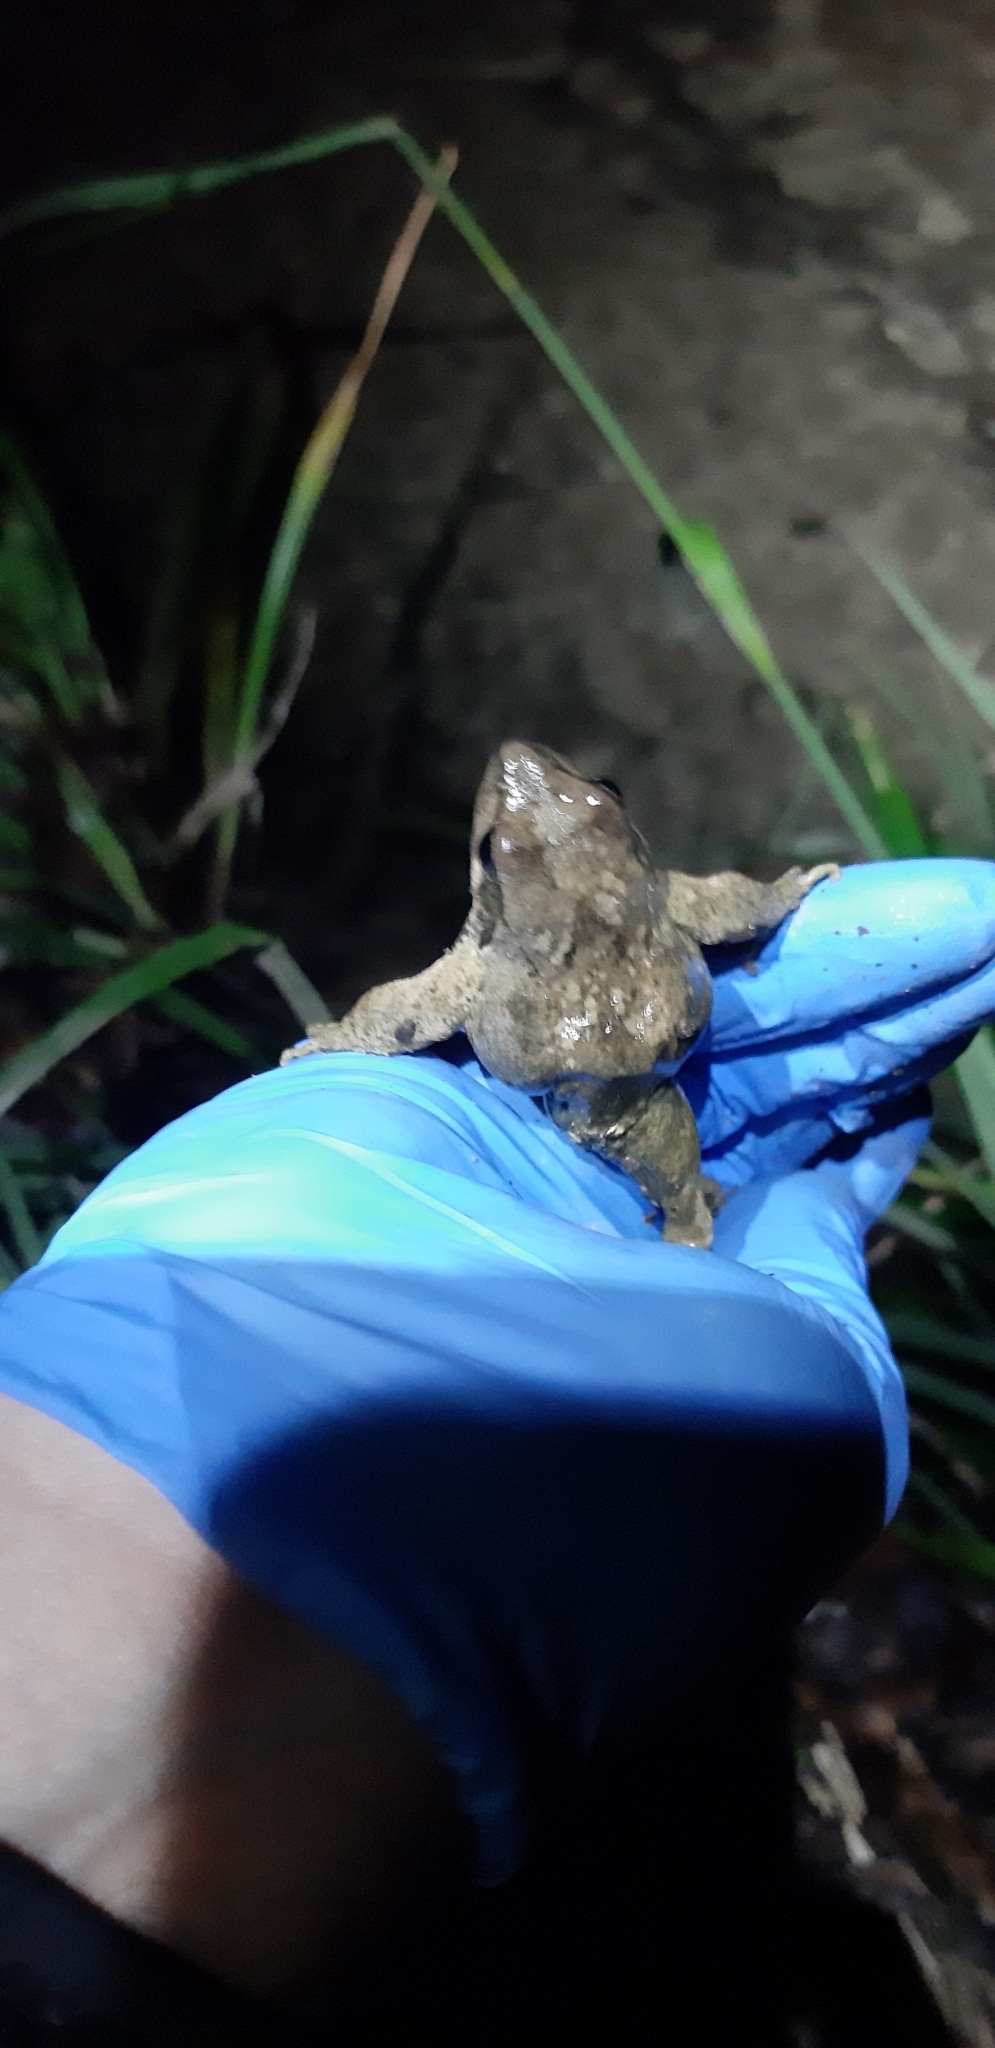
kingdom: Animalia
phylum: Chordata
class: Amphibia
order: Anura
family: Ranidae
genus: Rana
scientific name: Rana italica
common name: Italian stream frog
